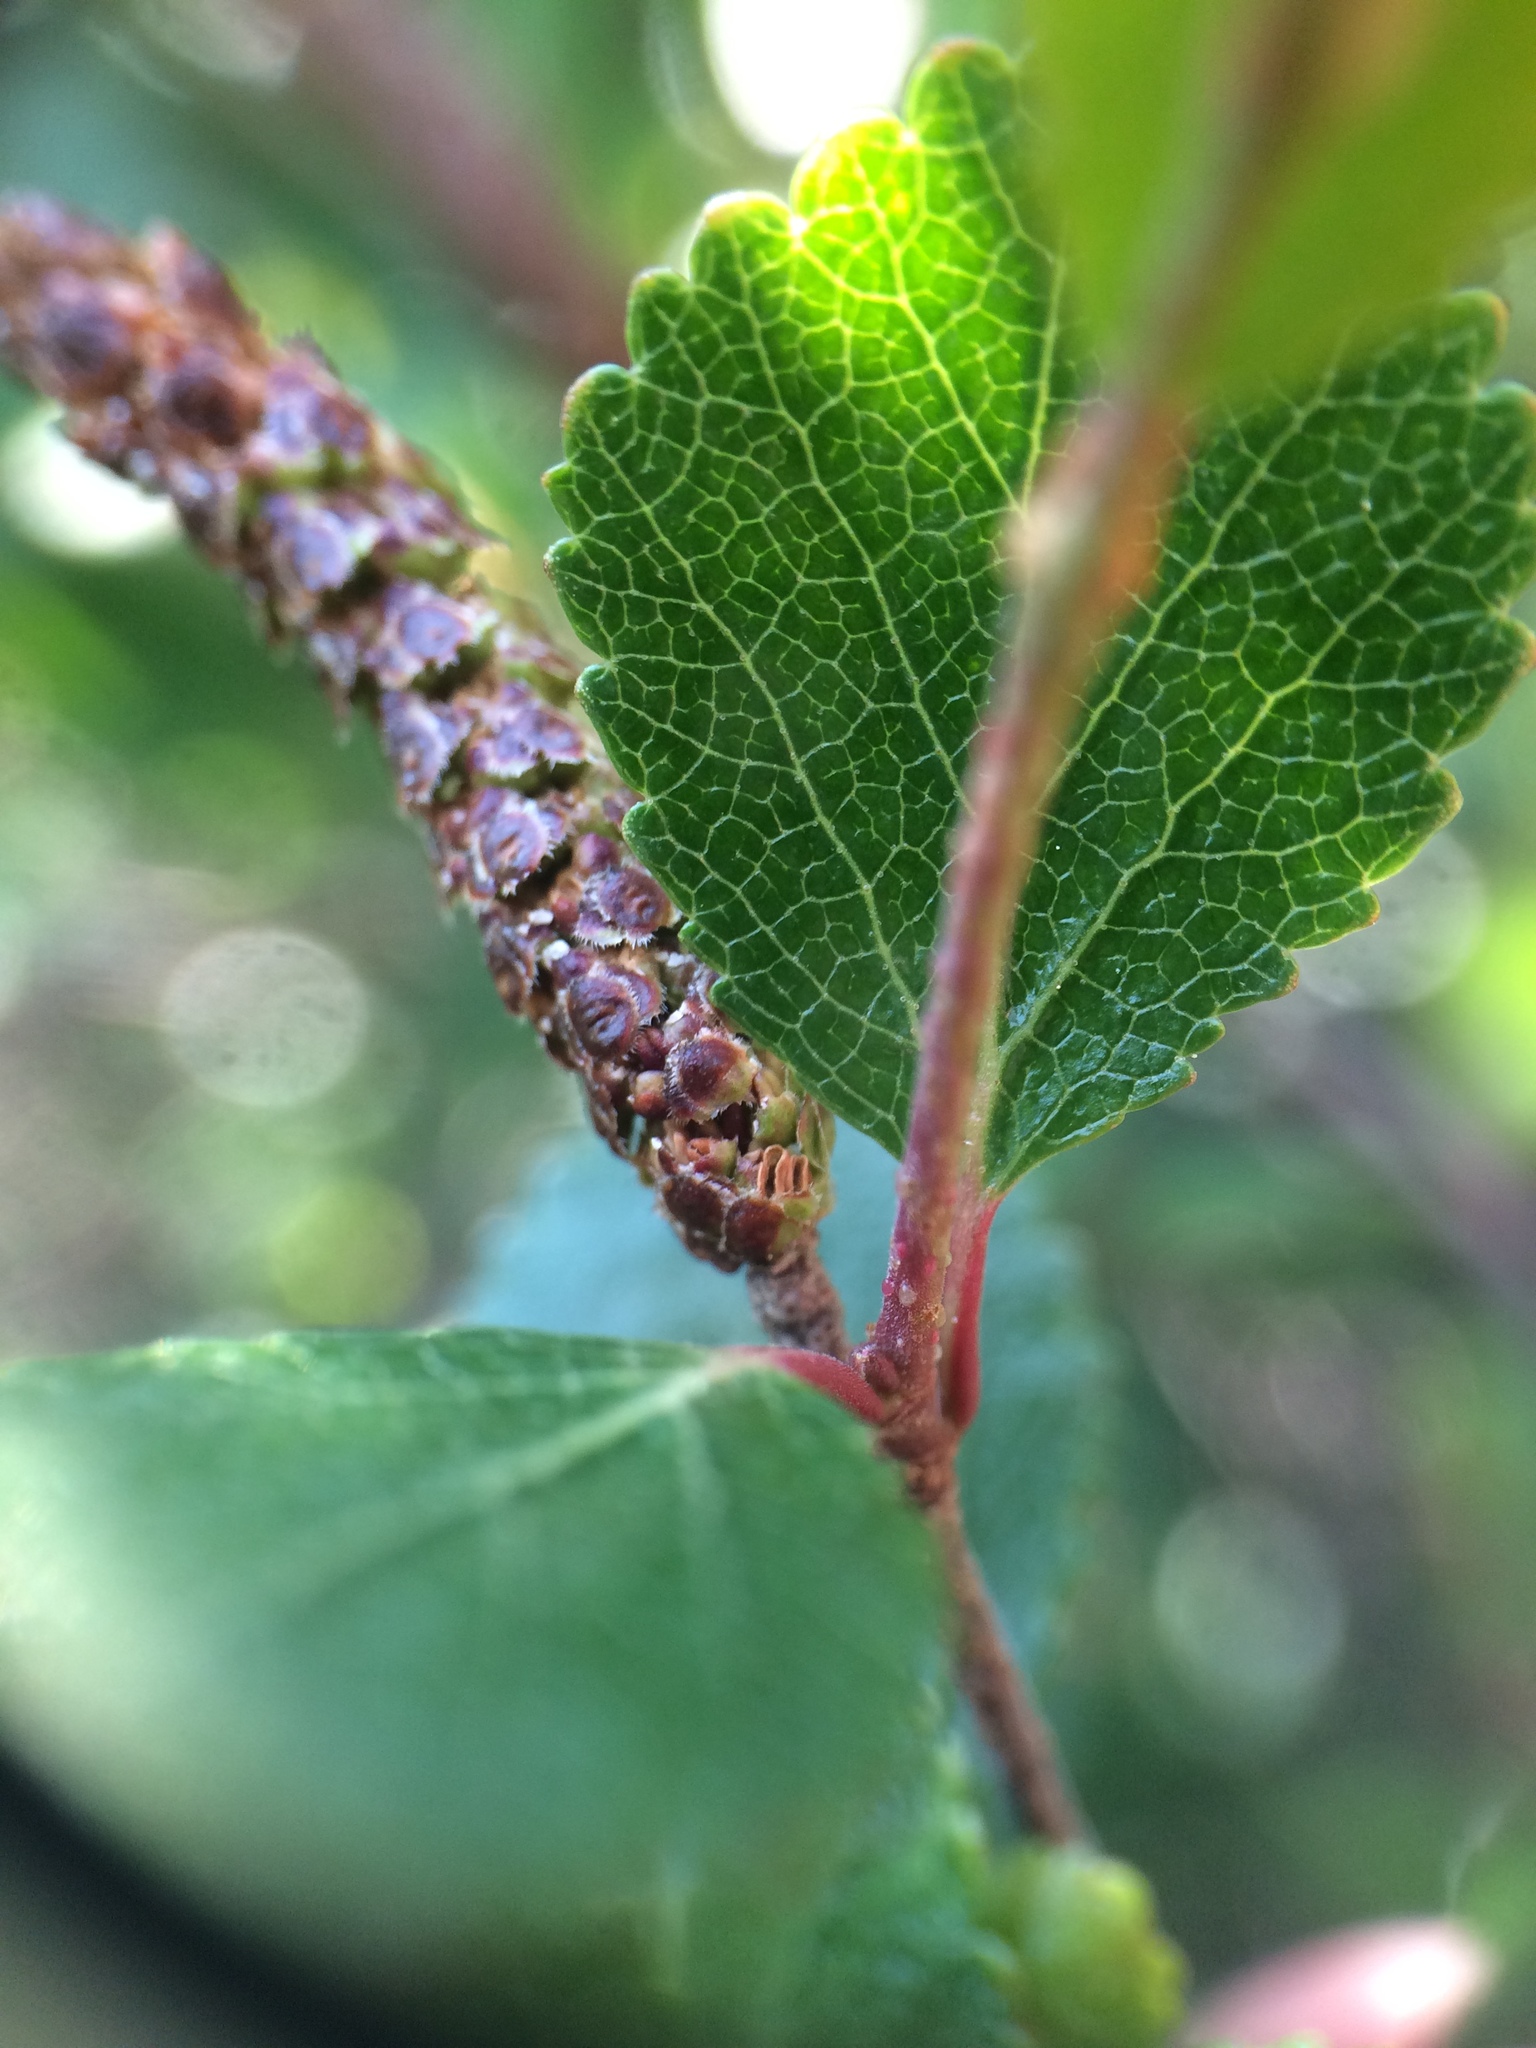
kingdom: Plantae
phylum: Tracheophyta
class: Magnoliopsida
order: Fagales
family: Betulaceae
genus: Betula
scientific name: Betula glandulosa
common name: Dwarf birch
